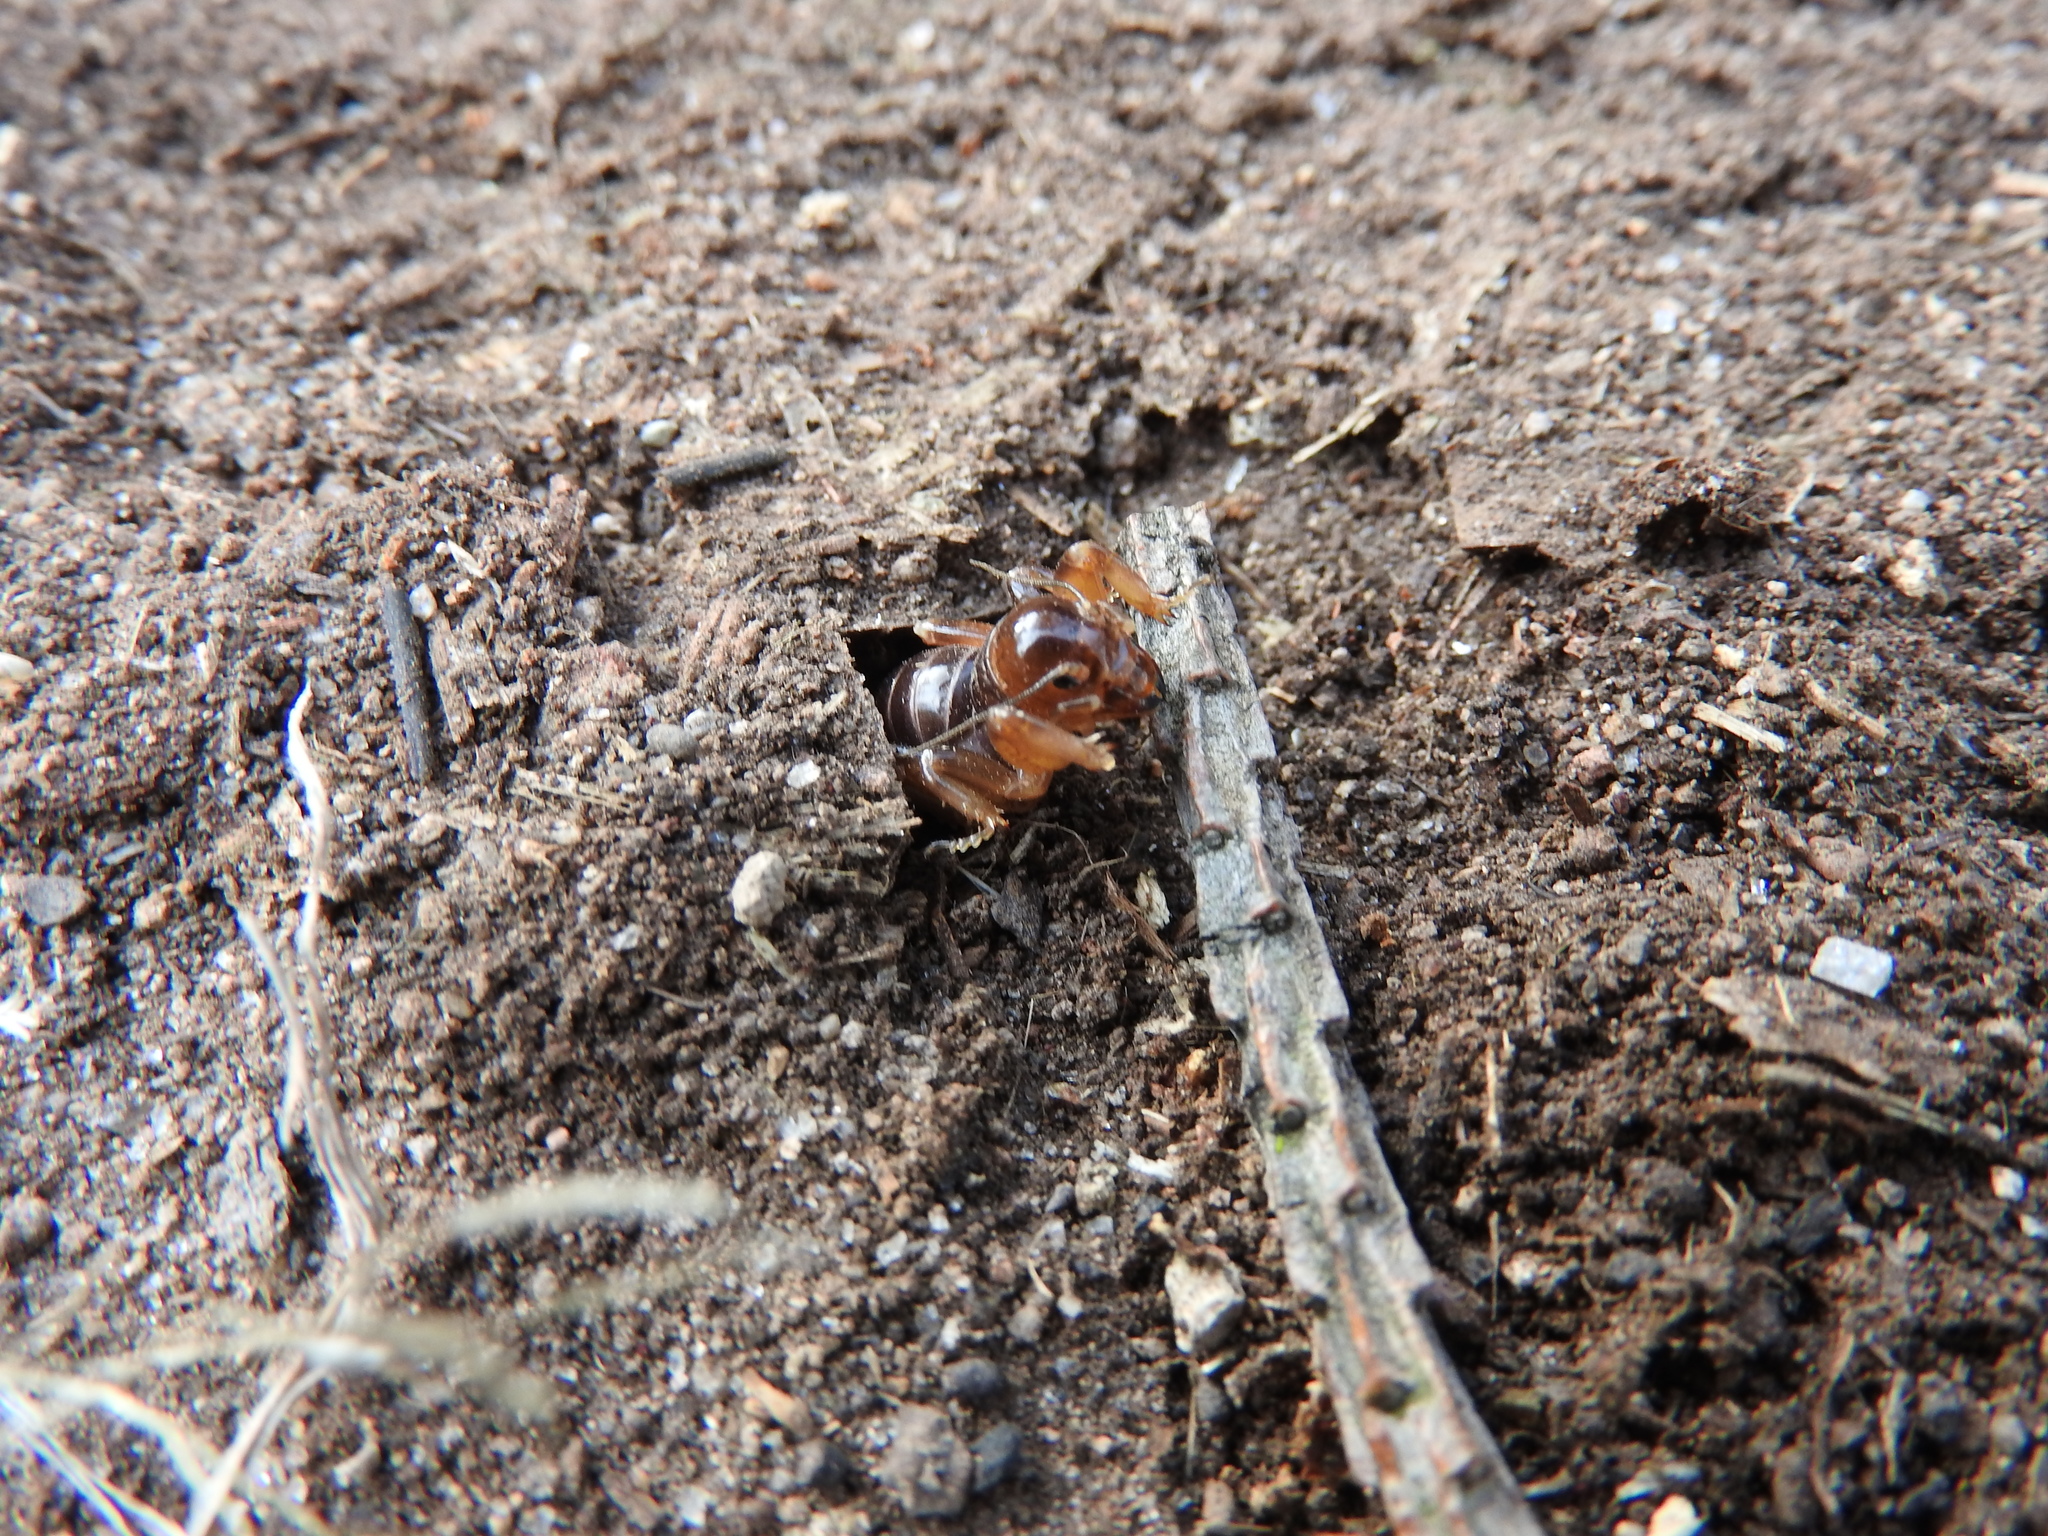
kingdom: Animalia
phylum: Arthropoda
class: Insecta
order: Orthoptera
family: Stenopelmatidae
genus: Stenopelmatus
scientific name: Stenopelmatus minor
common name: Small jerusalem cricket
